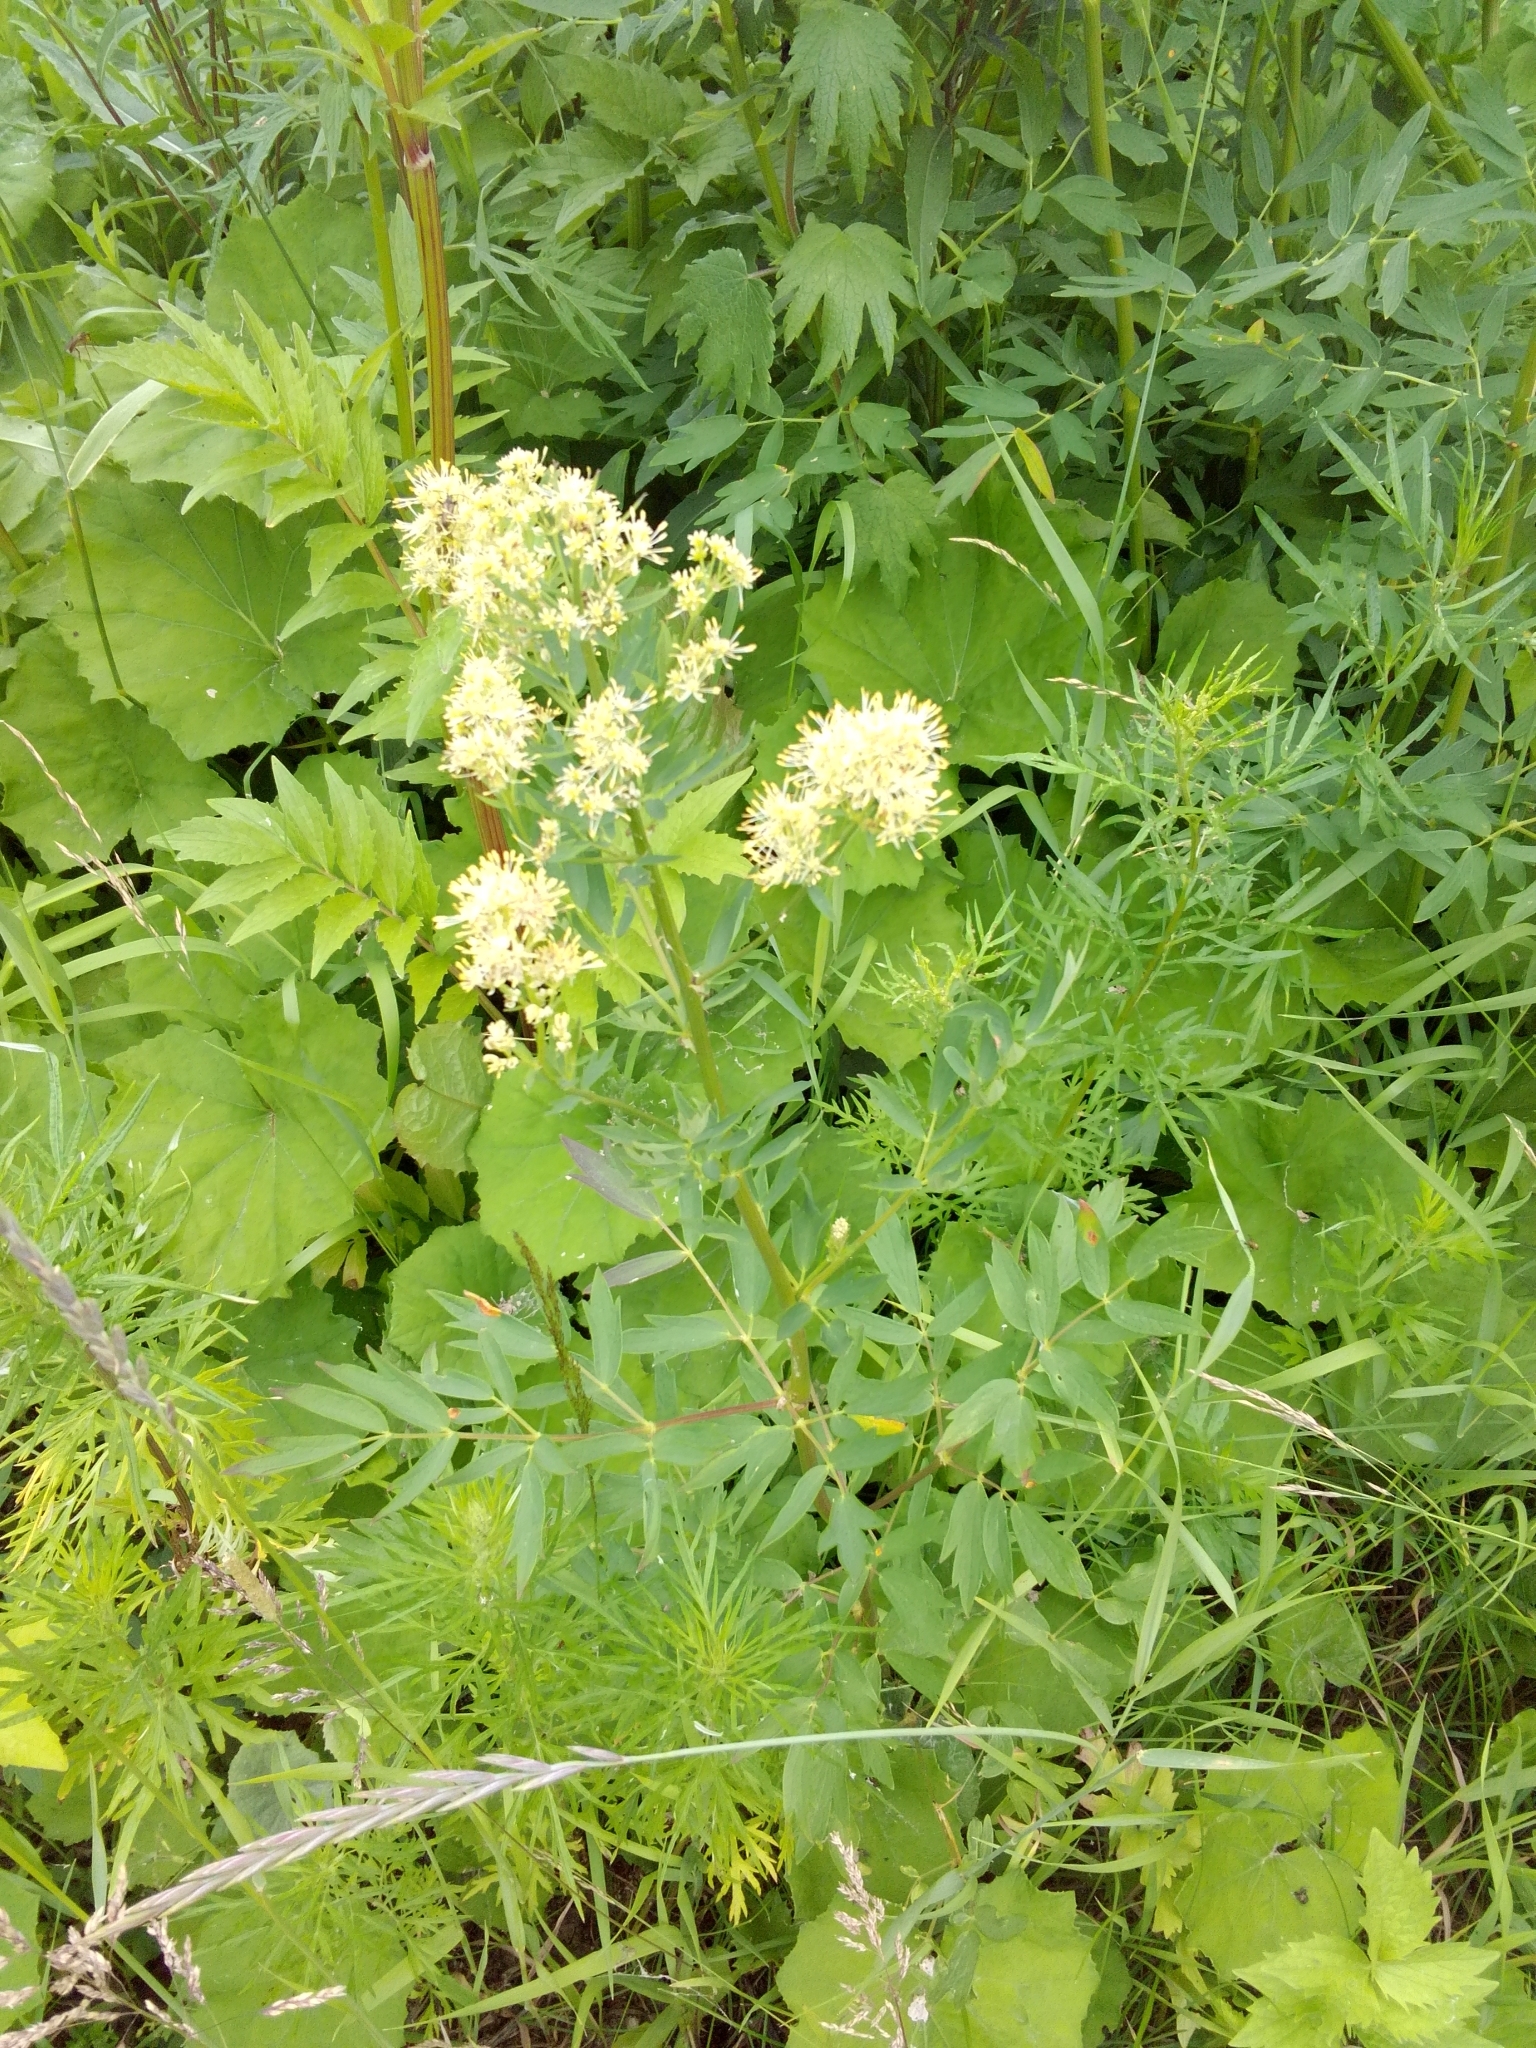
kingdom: Plantae
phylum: Tracheophyta
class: Magnoliopsida
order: Ranunculales
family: Ranunculaceae
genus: Thalictrum
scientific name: Thalictrum flavum
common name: Common meadow-rue
